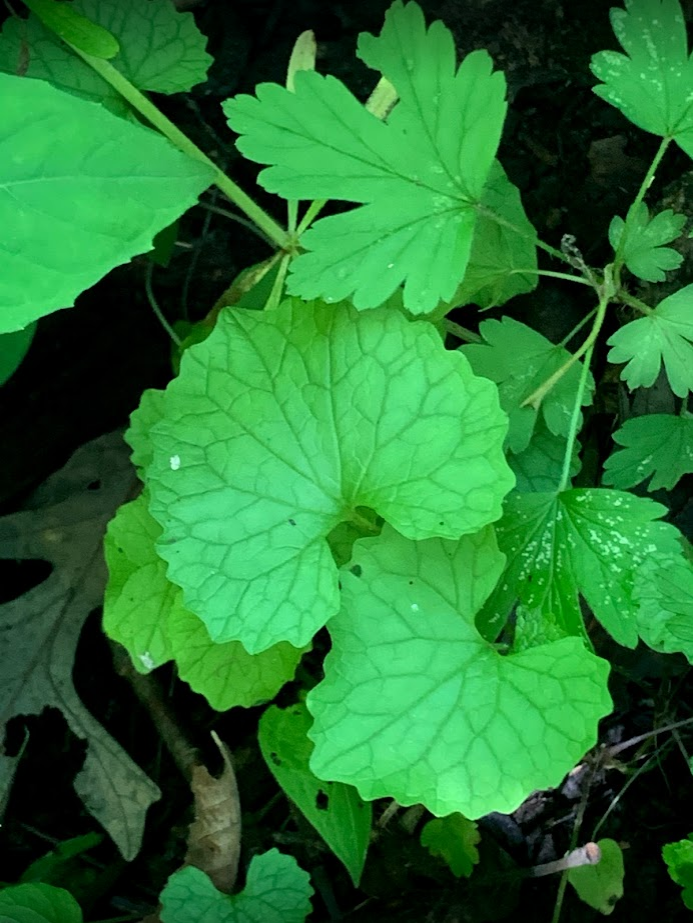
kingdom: Plantae
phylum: Tracheophyta
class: Magnoliopsida
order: Brassicales
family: Brassicaceae
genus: Alliaria
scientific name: Alliaria petiolata
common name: Garlic mustard
